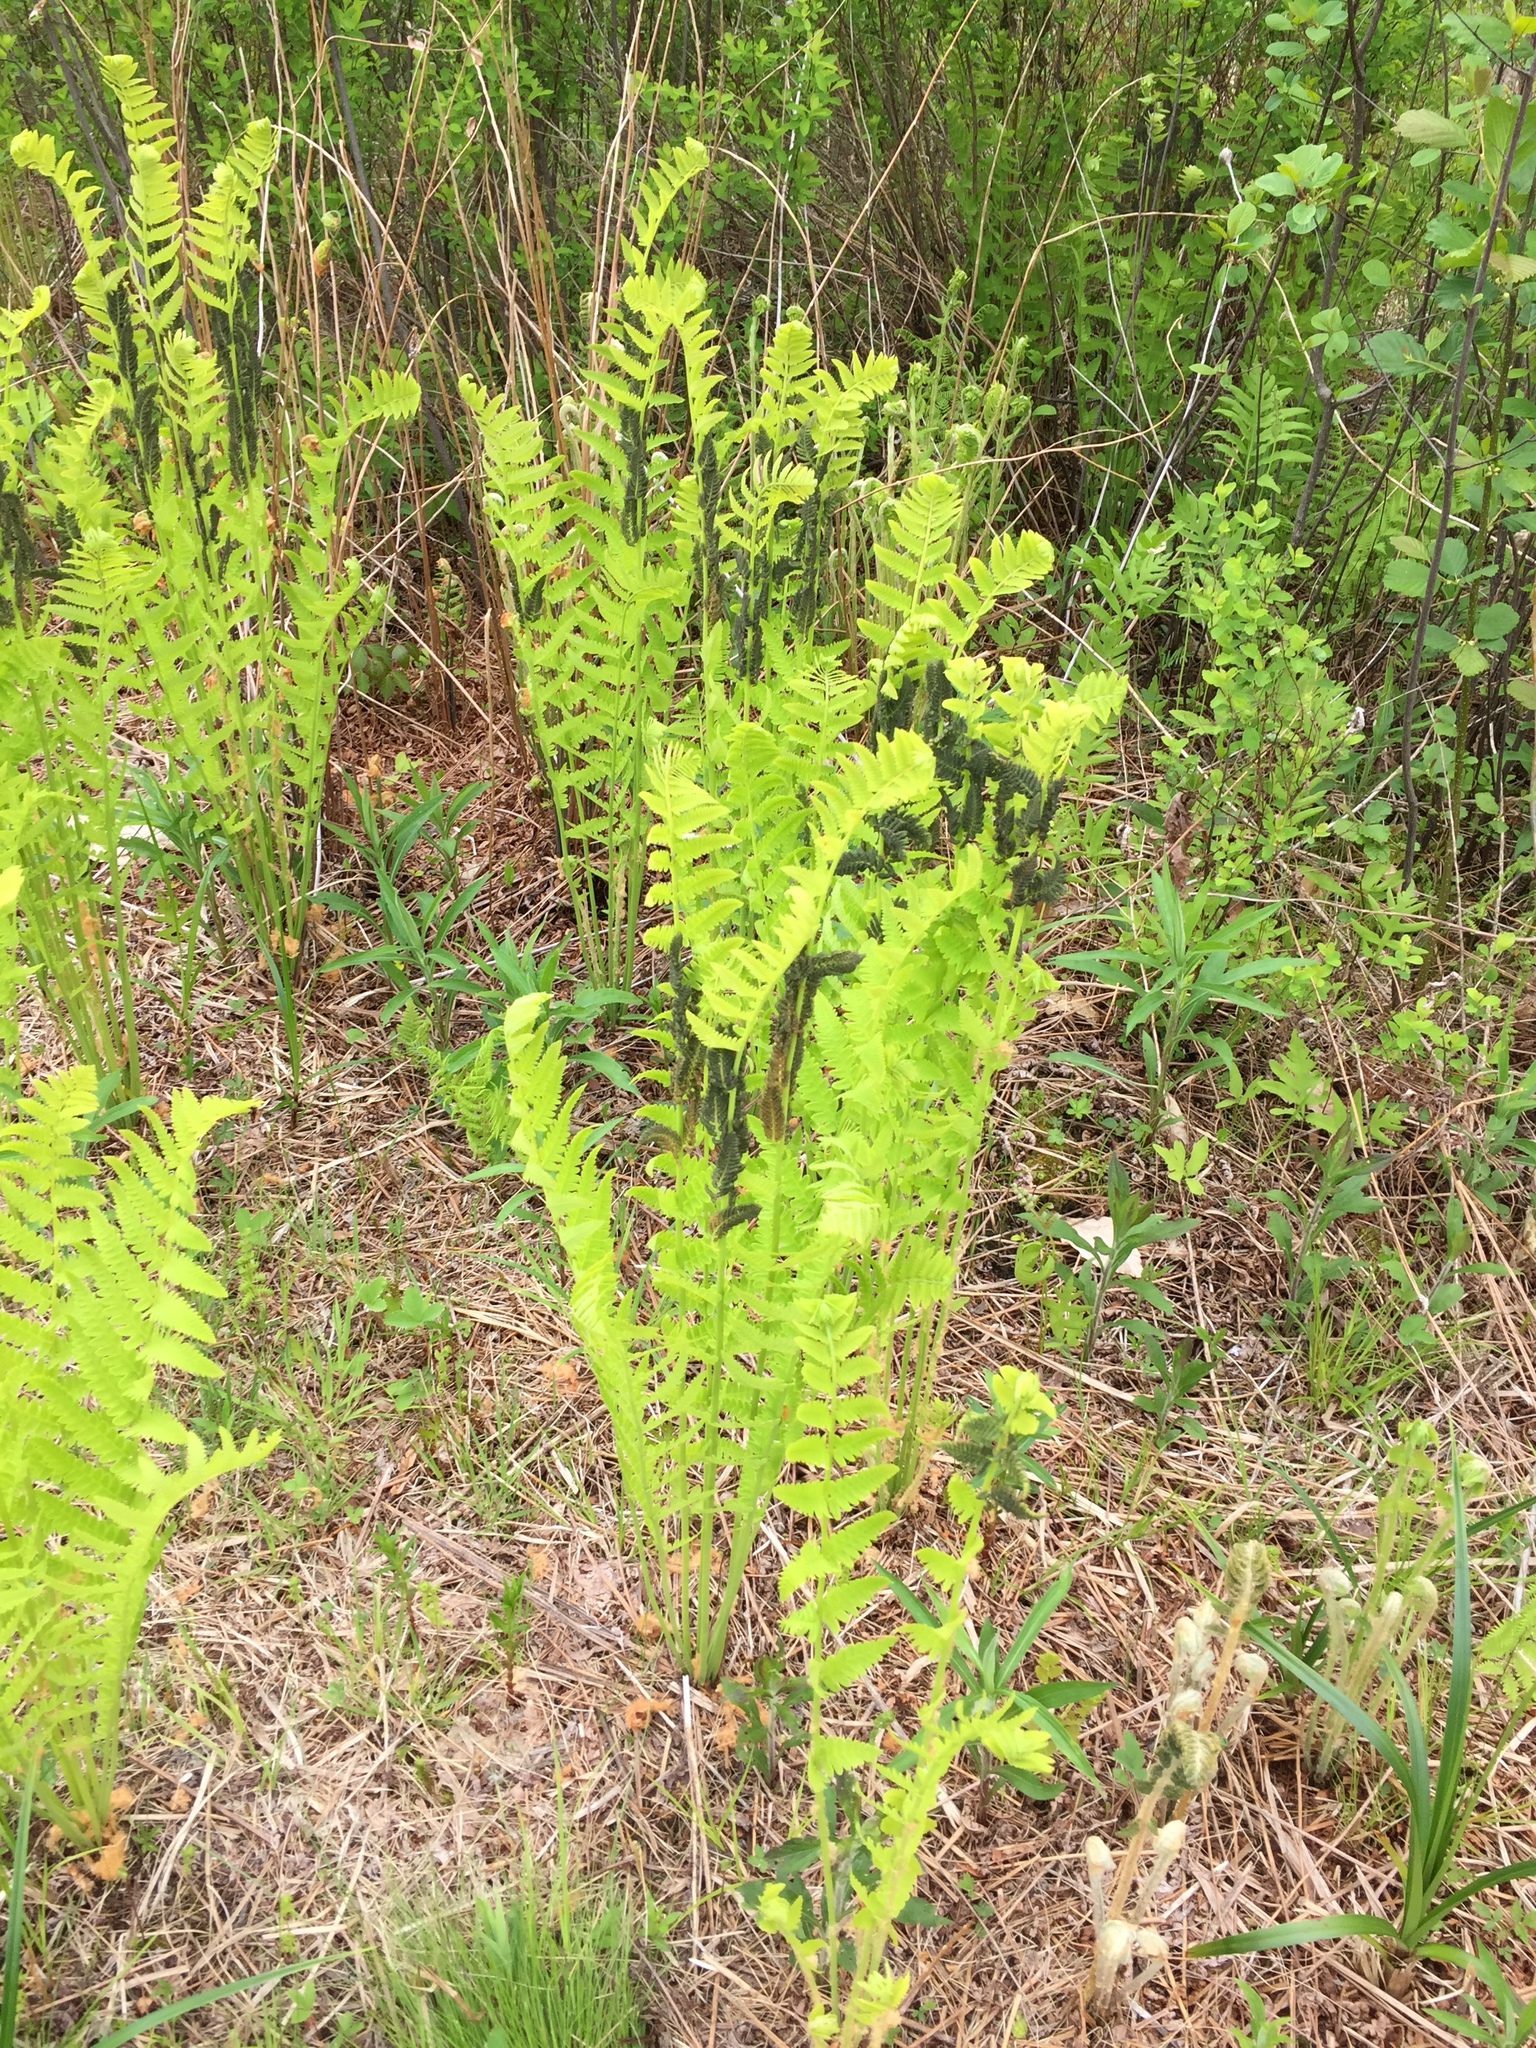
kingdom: Plantae
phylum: Tracheophyta
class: Polypodiopsida
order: Osmundales
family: Osmundaceae
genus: Claytosmunda
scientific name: Claytosmunda claytoniana
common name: Clayton's fern
